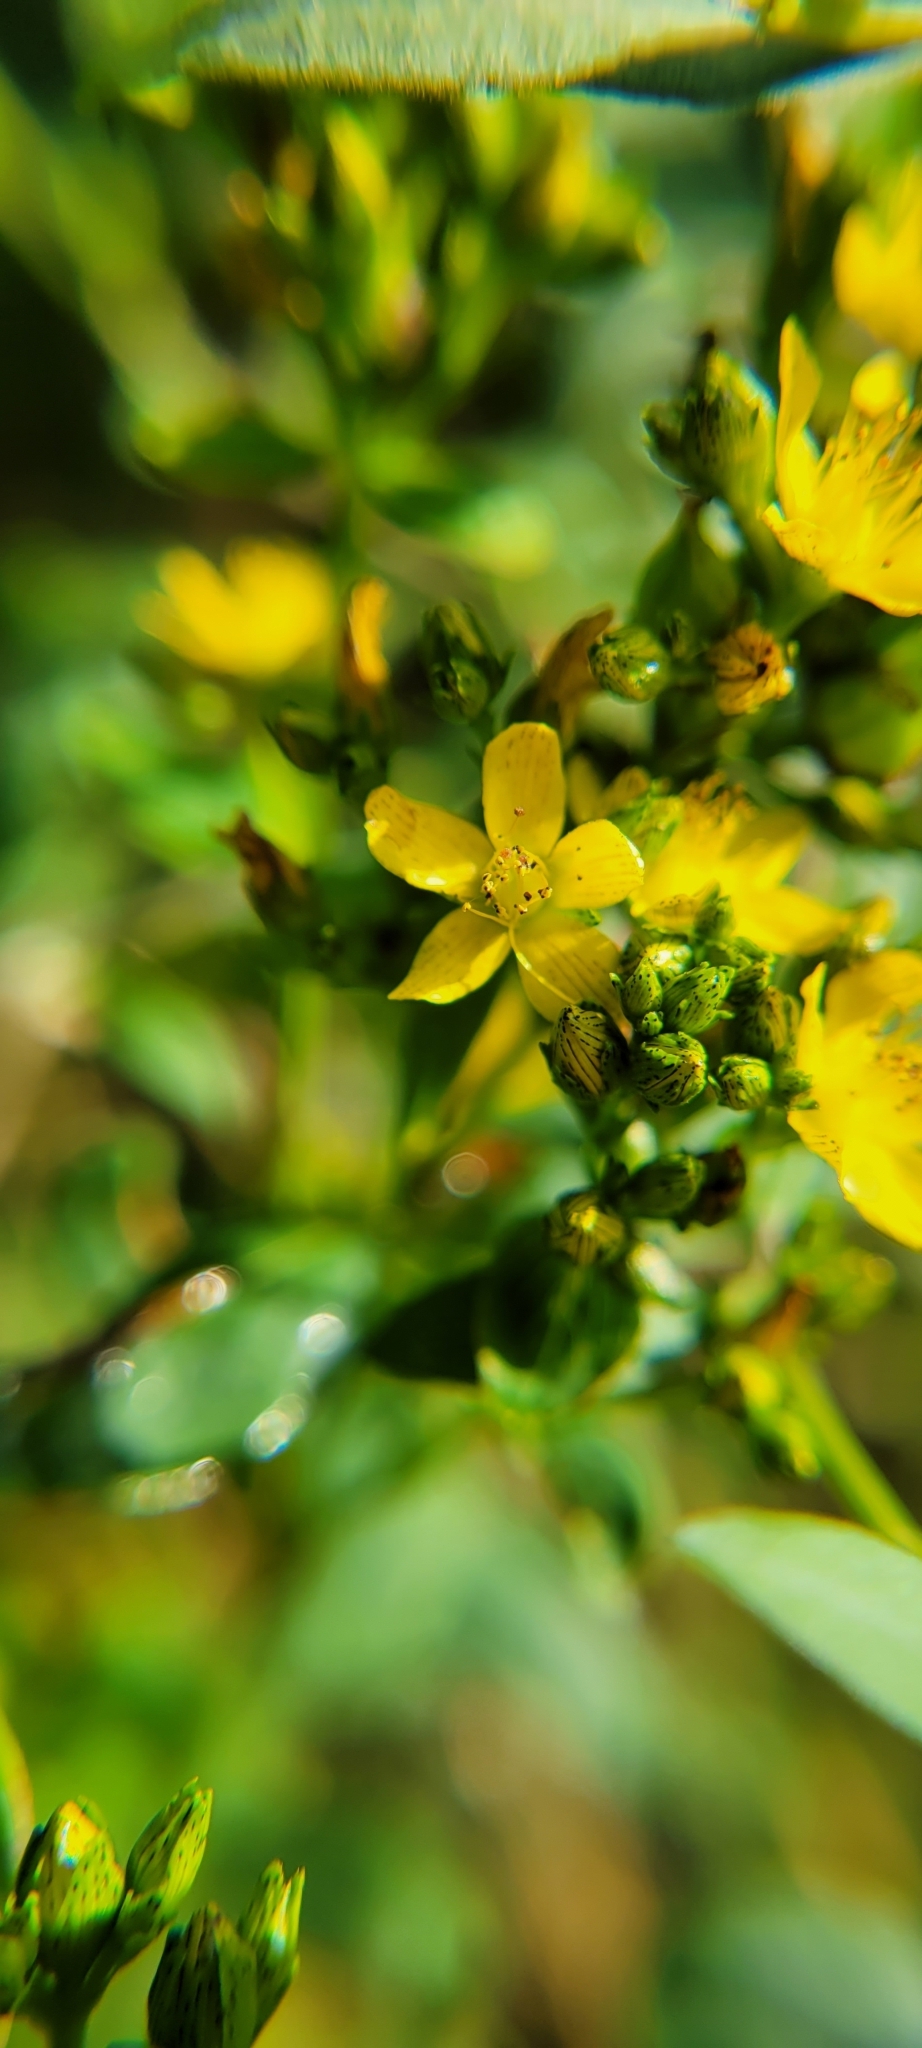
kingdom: Plantae
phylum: Tracheophyta
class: Magnoliopsida
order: Malpighiales
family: Hypericaceae
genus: Hypericum
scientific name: Hypericum punctatum
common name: Spotted st. john's-wort
